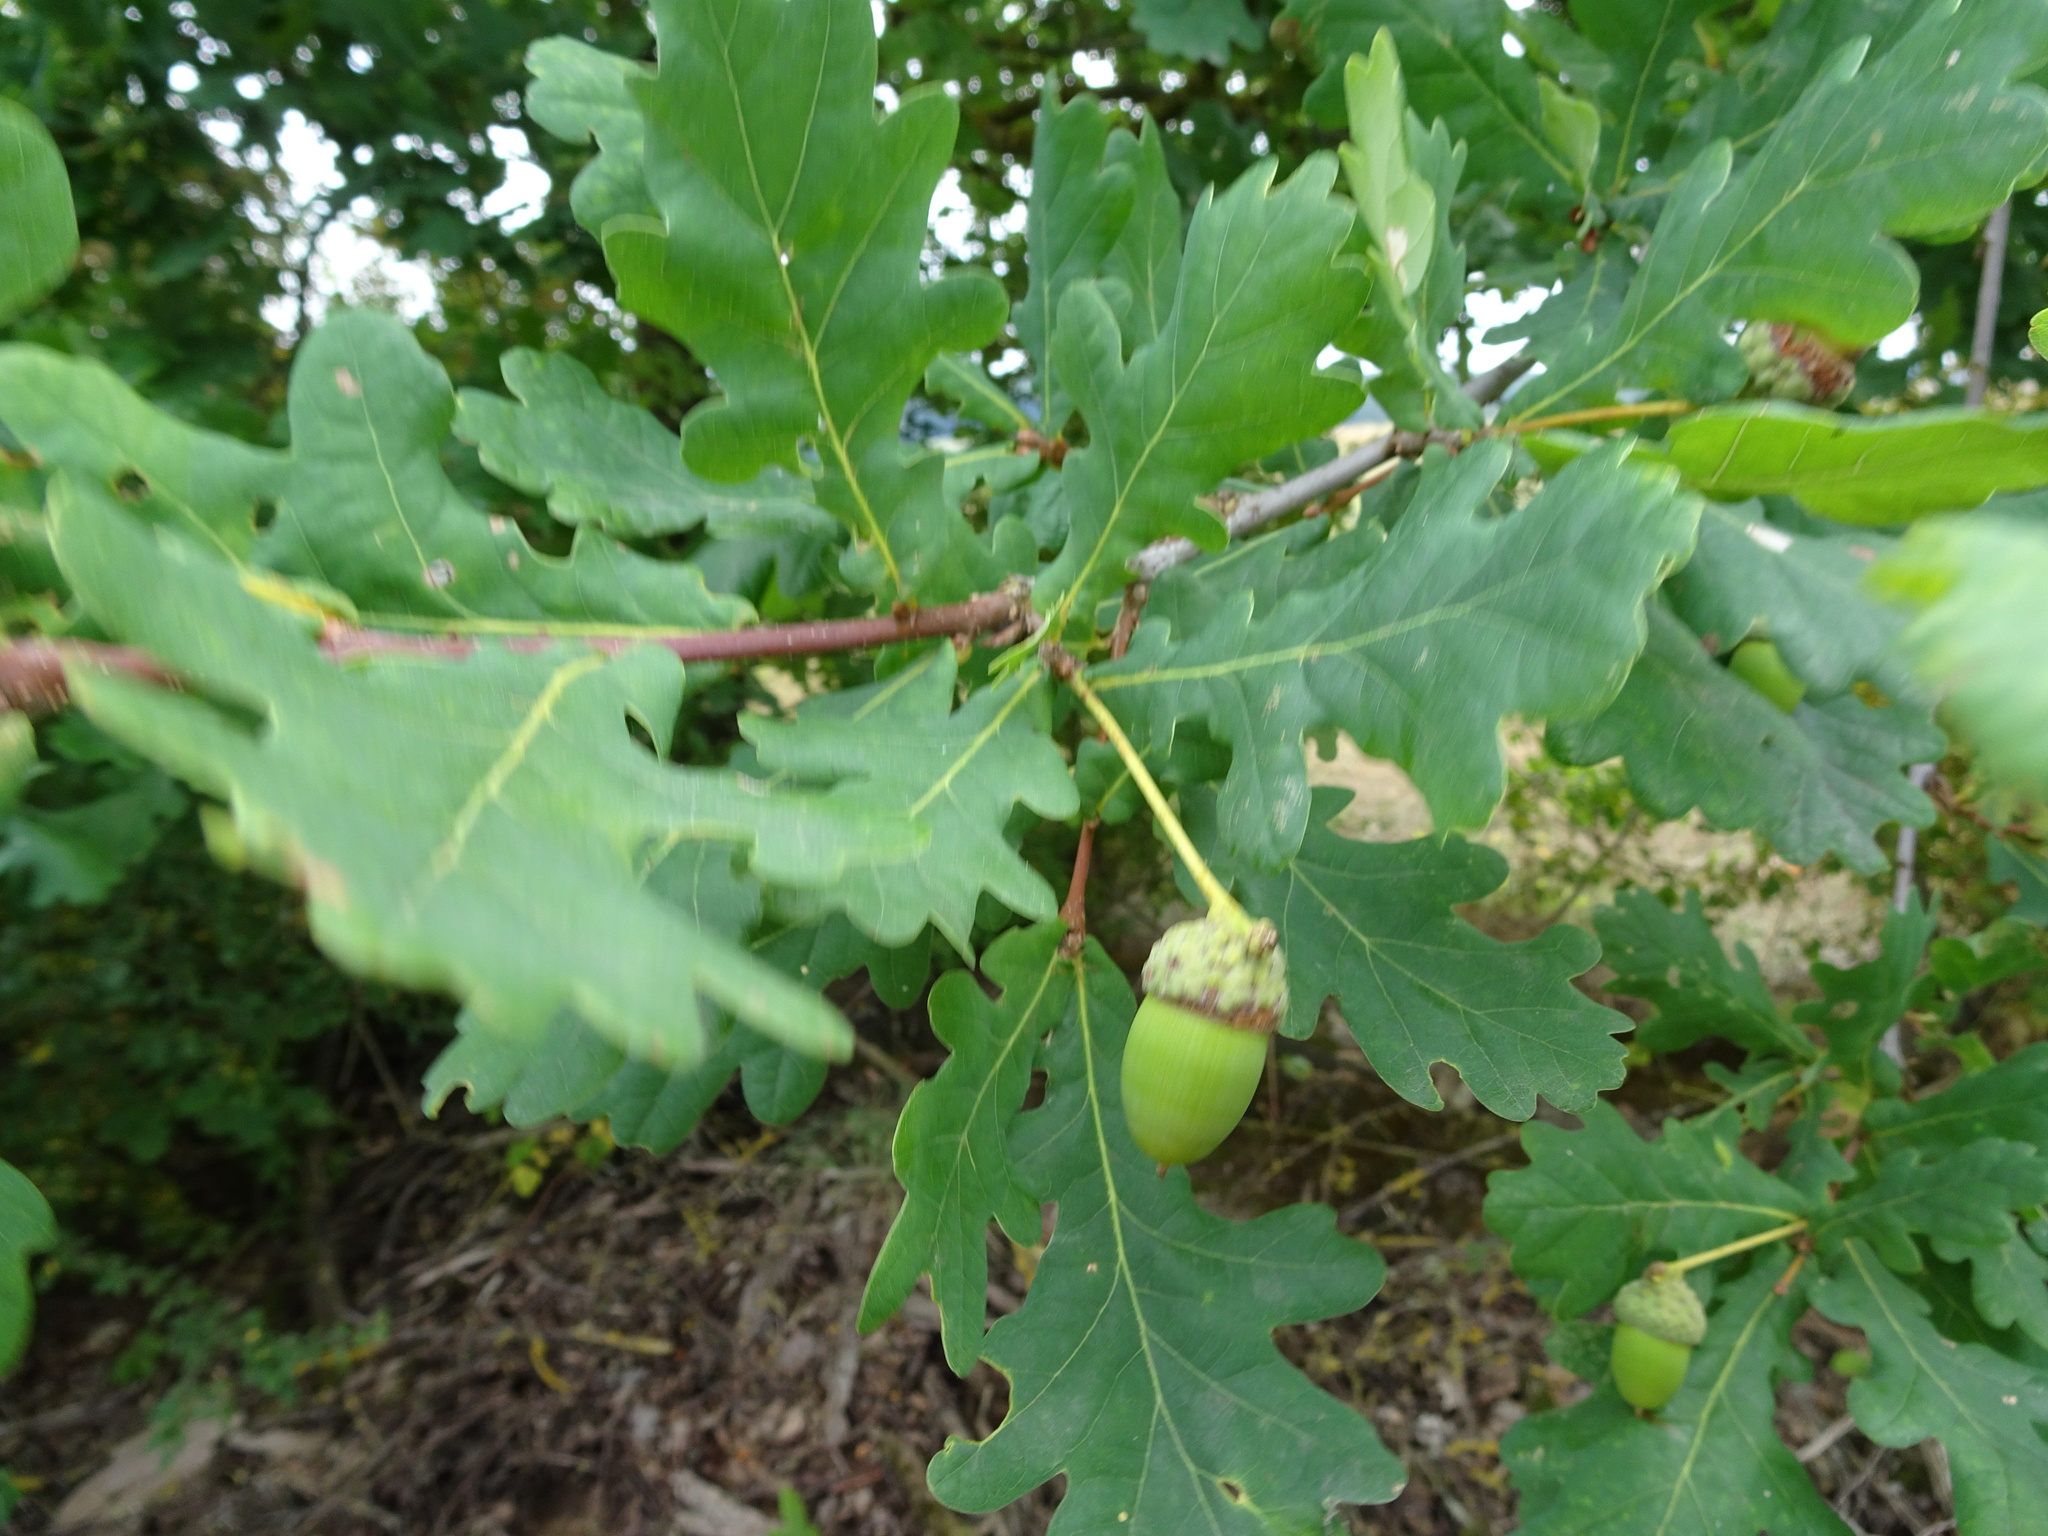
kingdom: Plantae
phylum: Tracheophyta
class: Magnoliopsida
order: Fagales
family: Fagaceae
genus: Quercus
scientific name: Quercus robur
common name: Pedunculate oak
